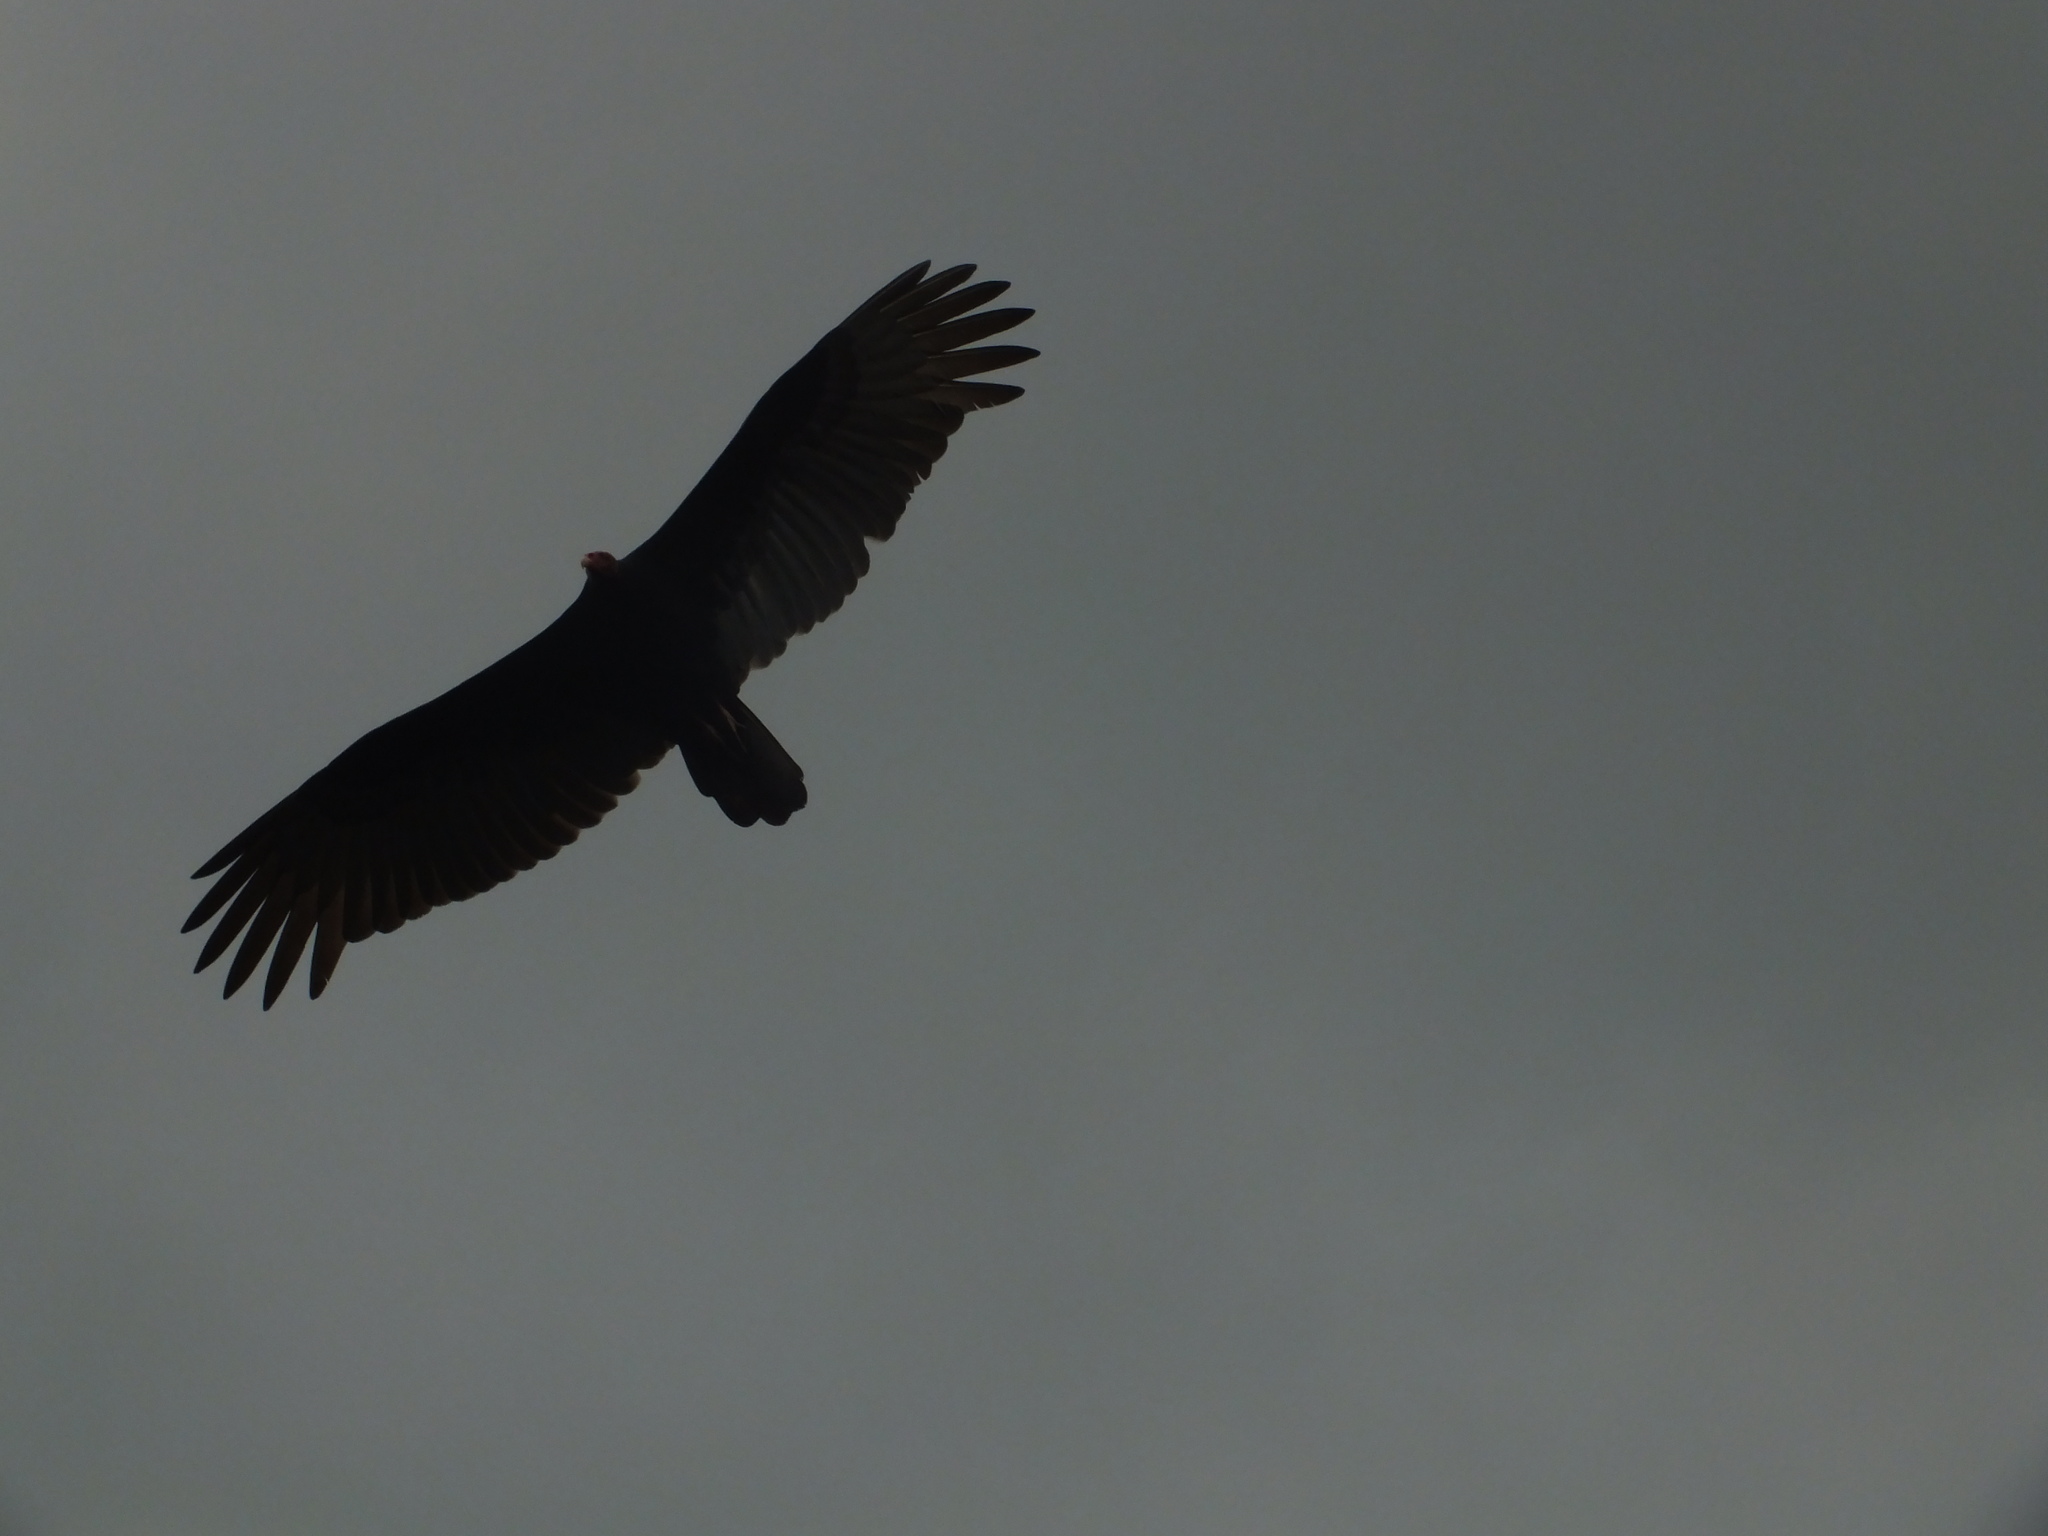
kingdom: Animalia
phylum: Chordata
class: Aves
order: Accipitriformes
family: Cathartidae
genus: Cathartes
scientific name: Cathartes aura
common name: Turkey vulture
